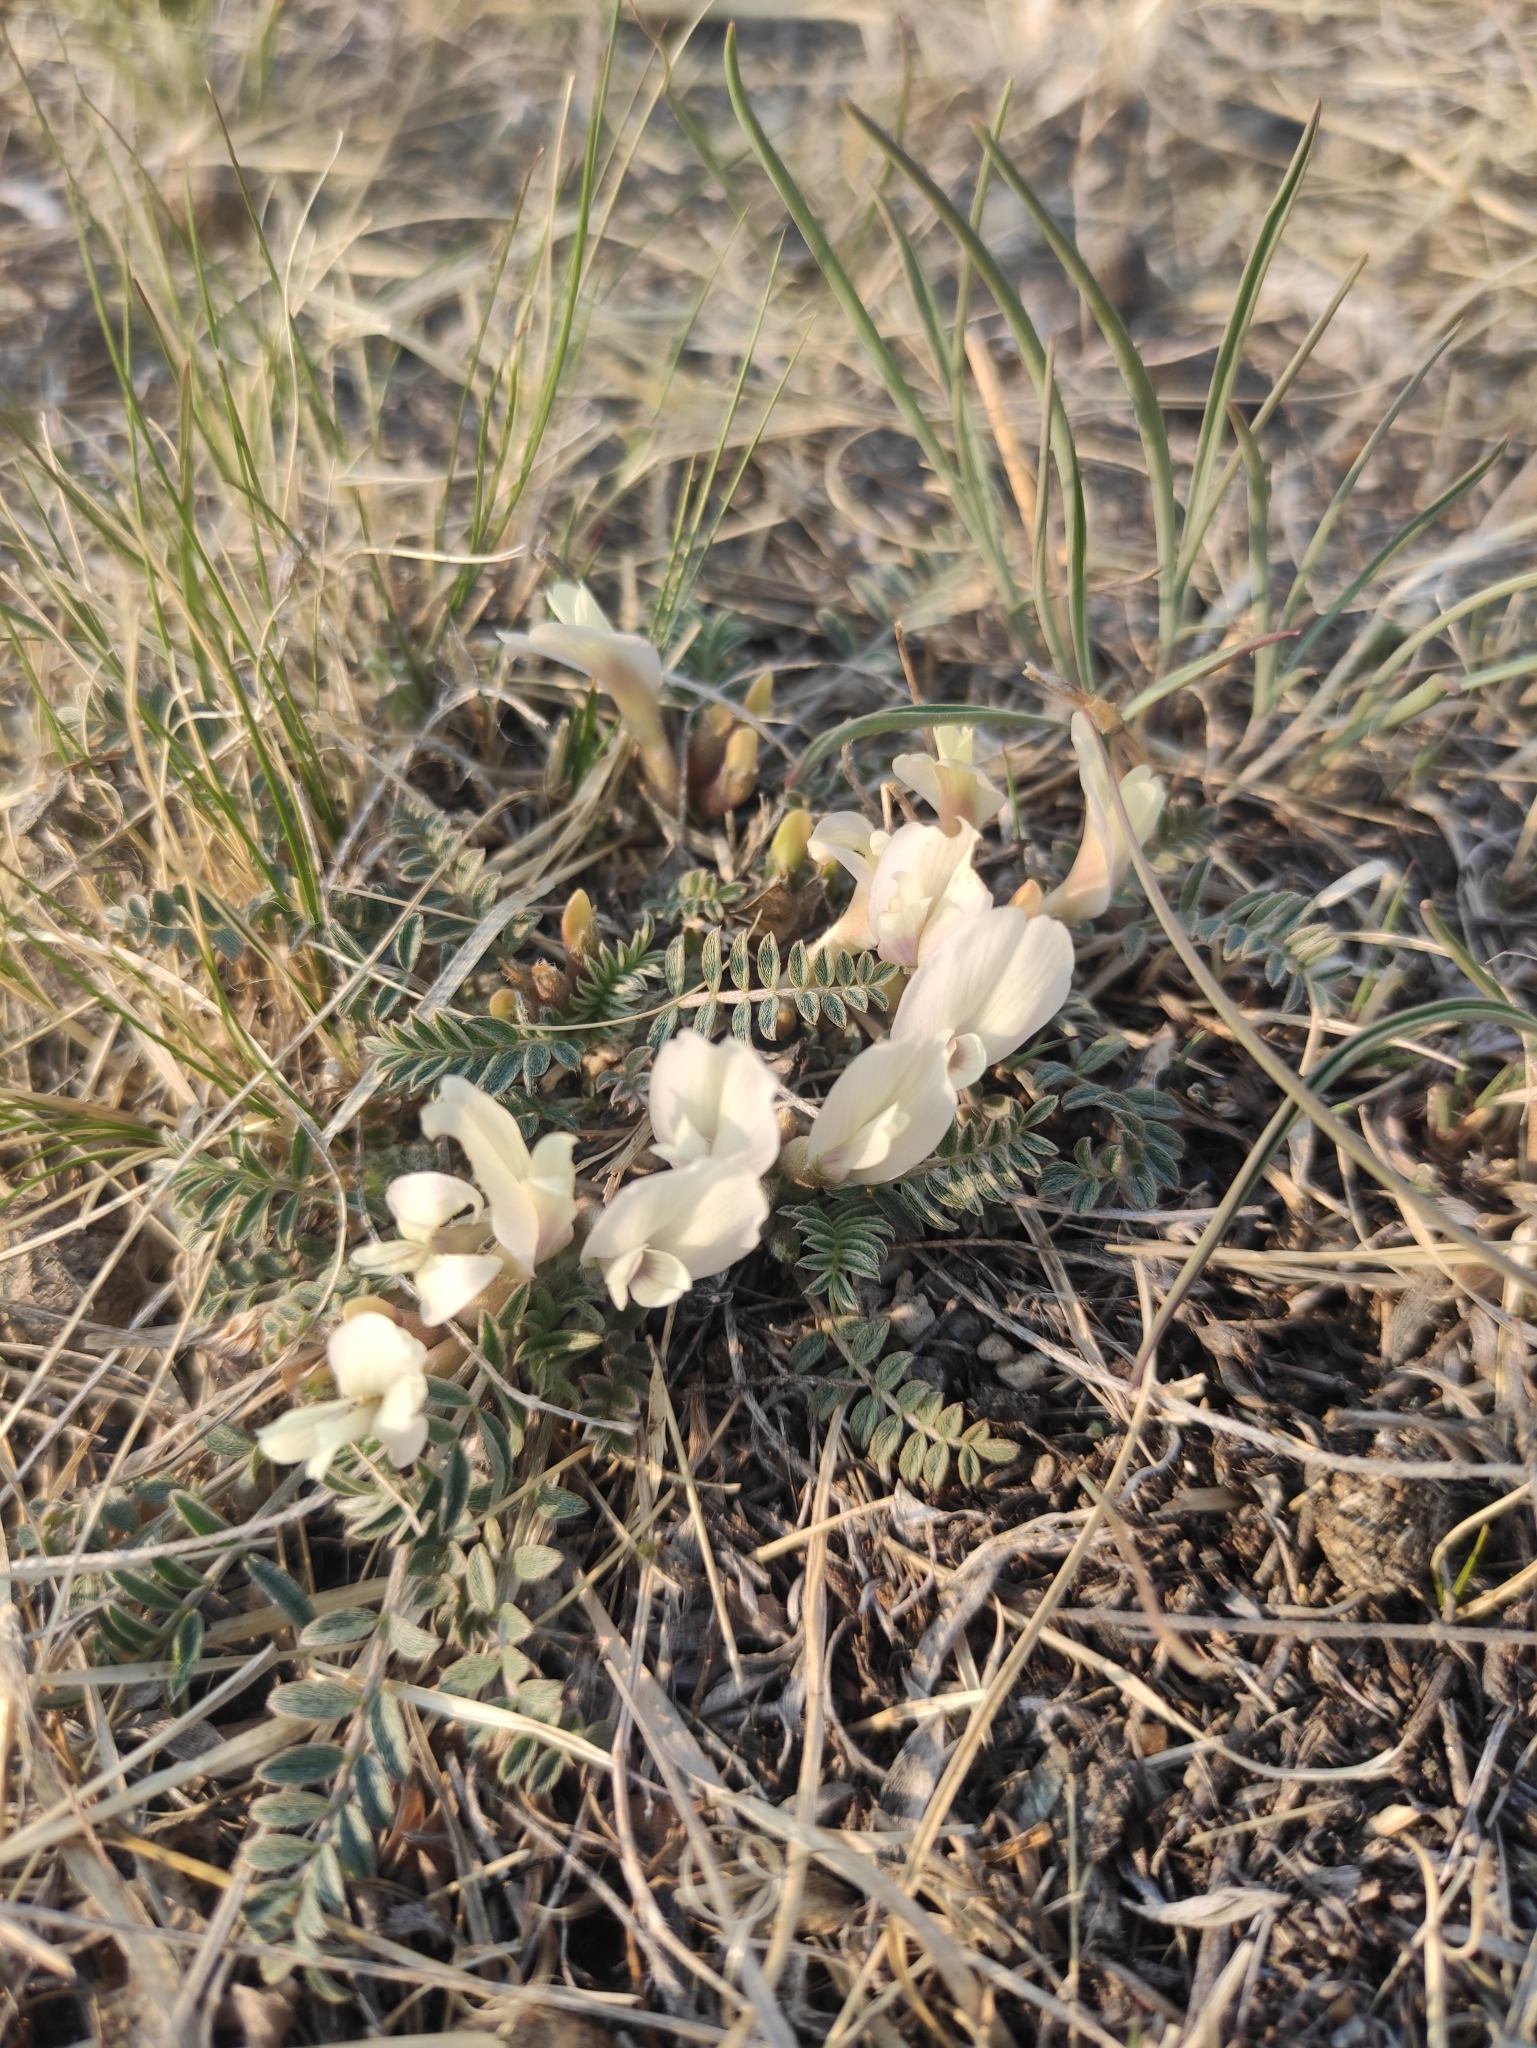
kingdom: Plantae
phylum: Tracheophyta
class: Magnoliopsida
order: Fabales
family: Fabaceae
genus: Astragalus
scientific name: Astragalus scaberrimus
